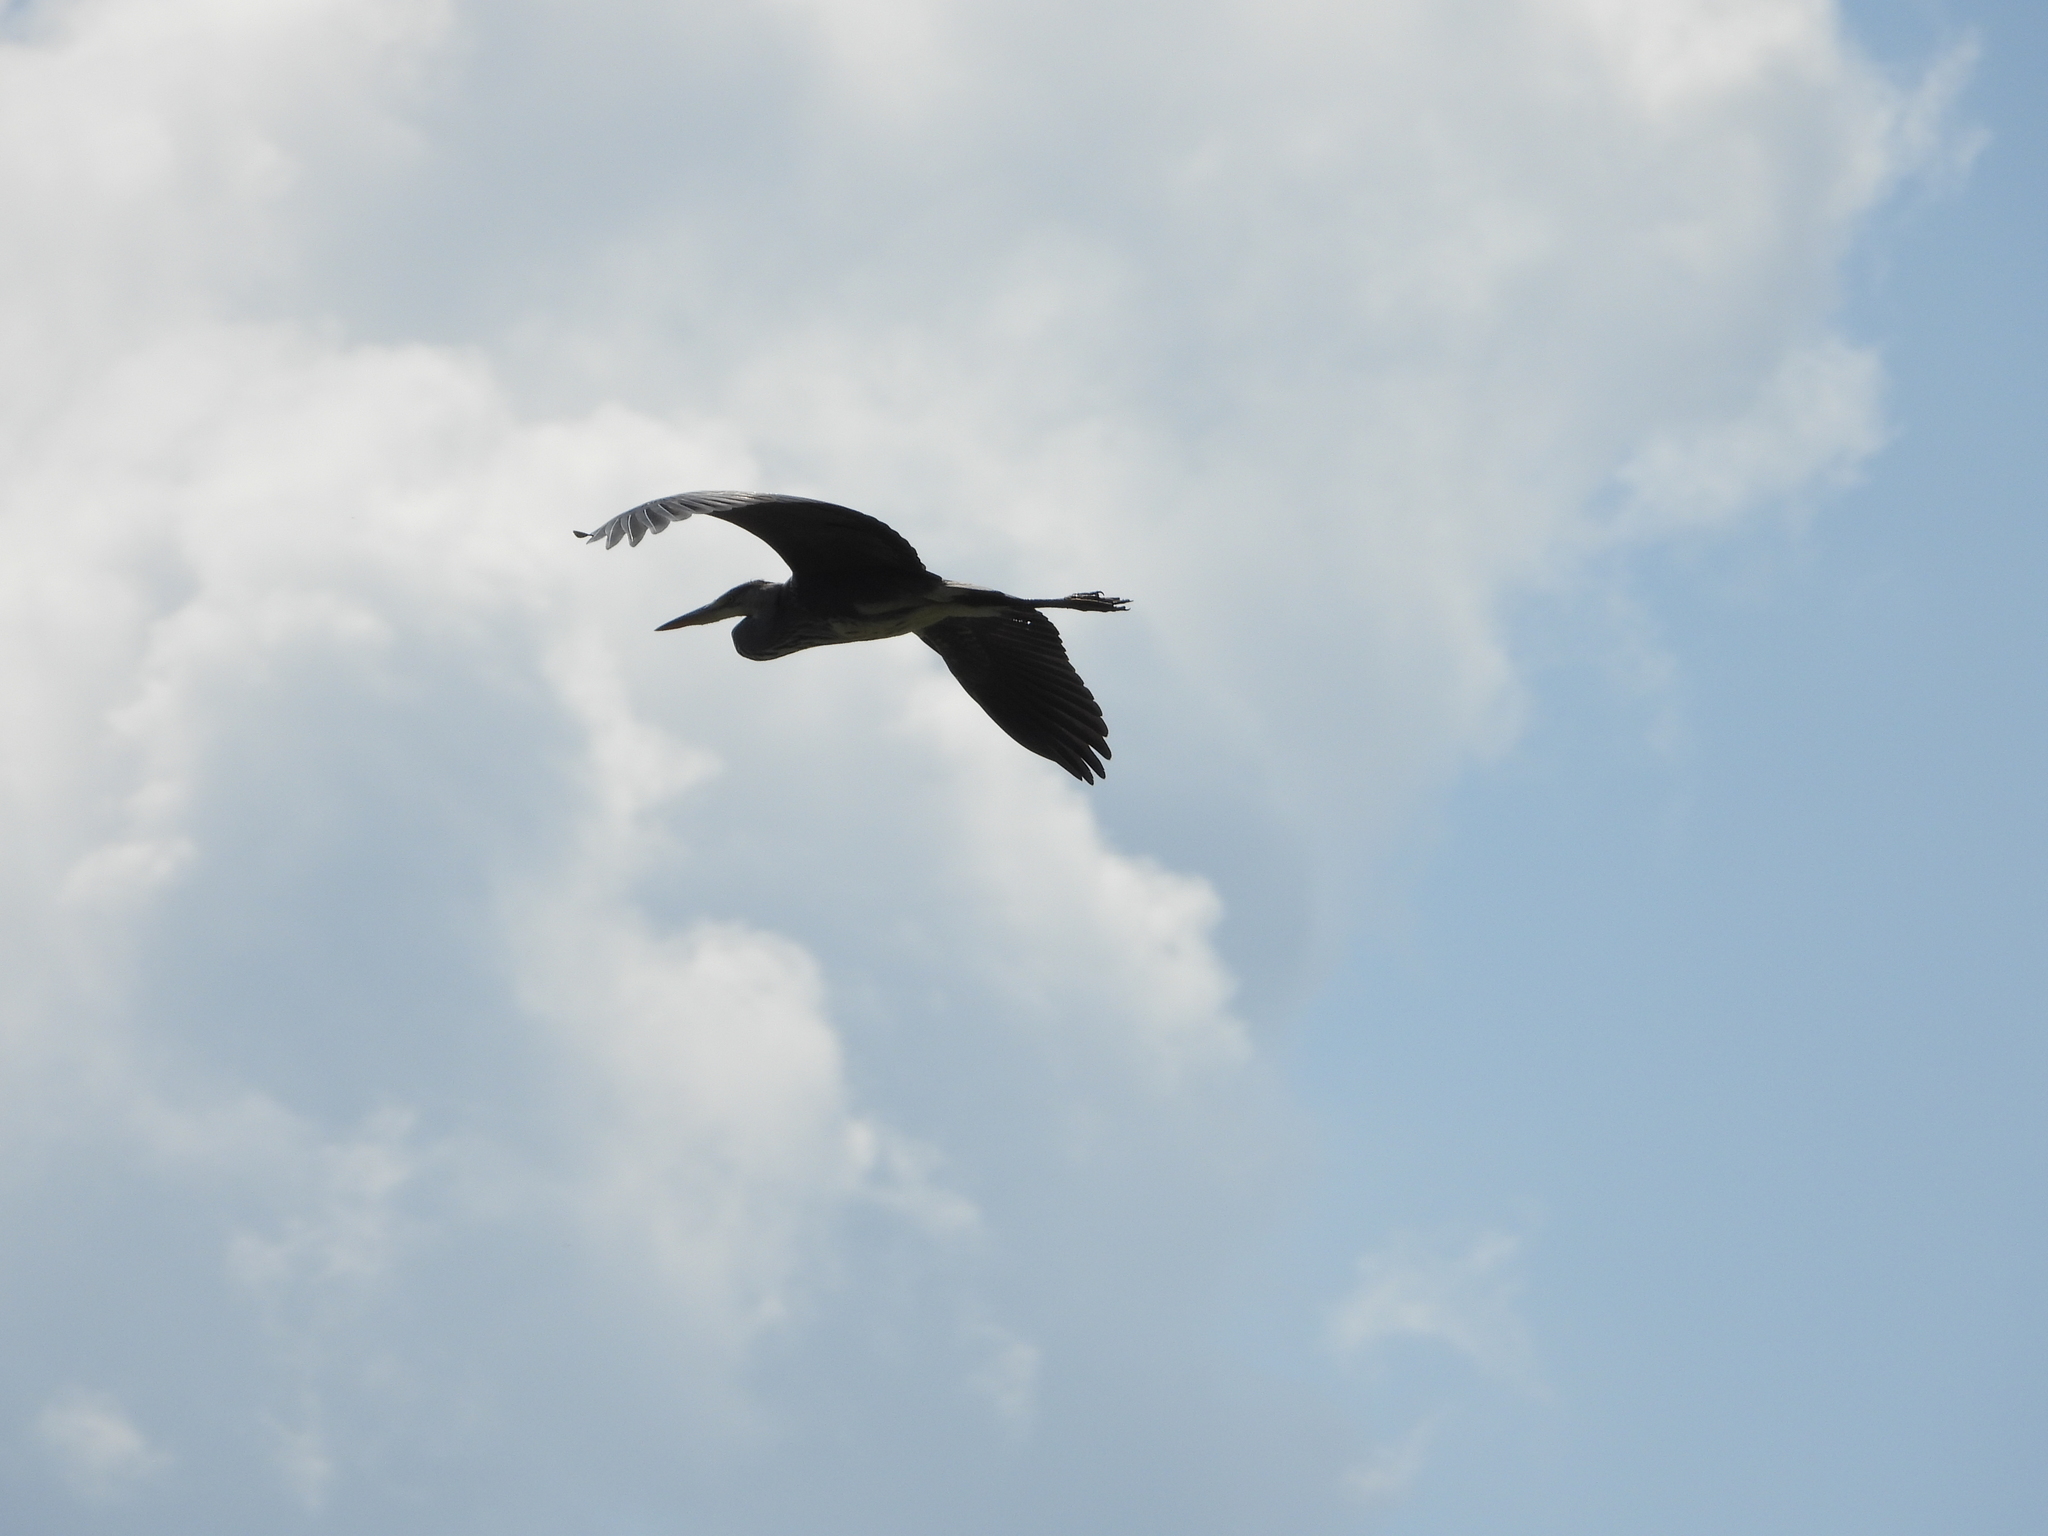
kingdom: Animalia
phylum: Chordata
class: Aves
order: Pelecaniformes
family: Ardeidae
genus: Ardea
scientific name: Ardea cinerea
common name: Grey heron
